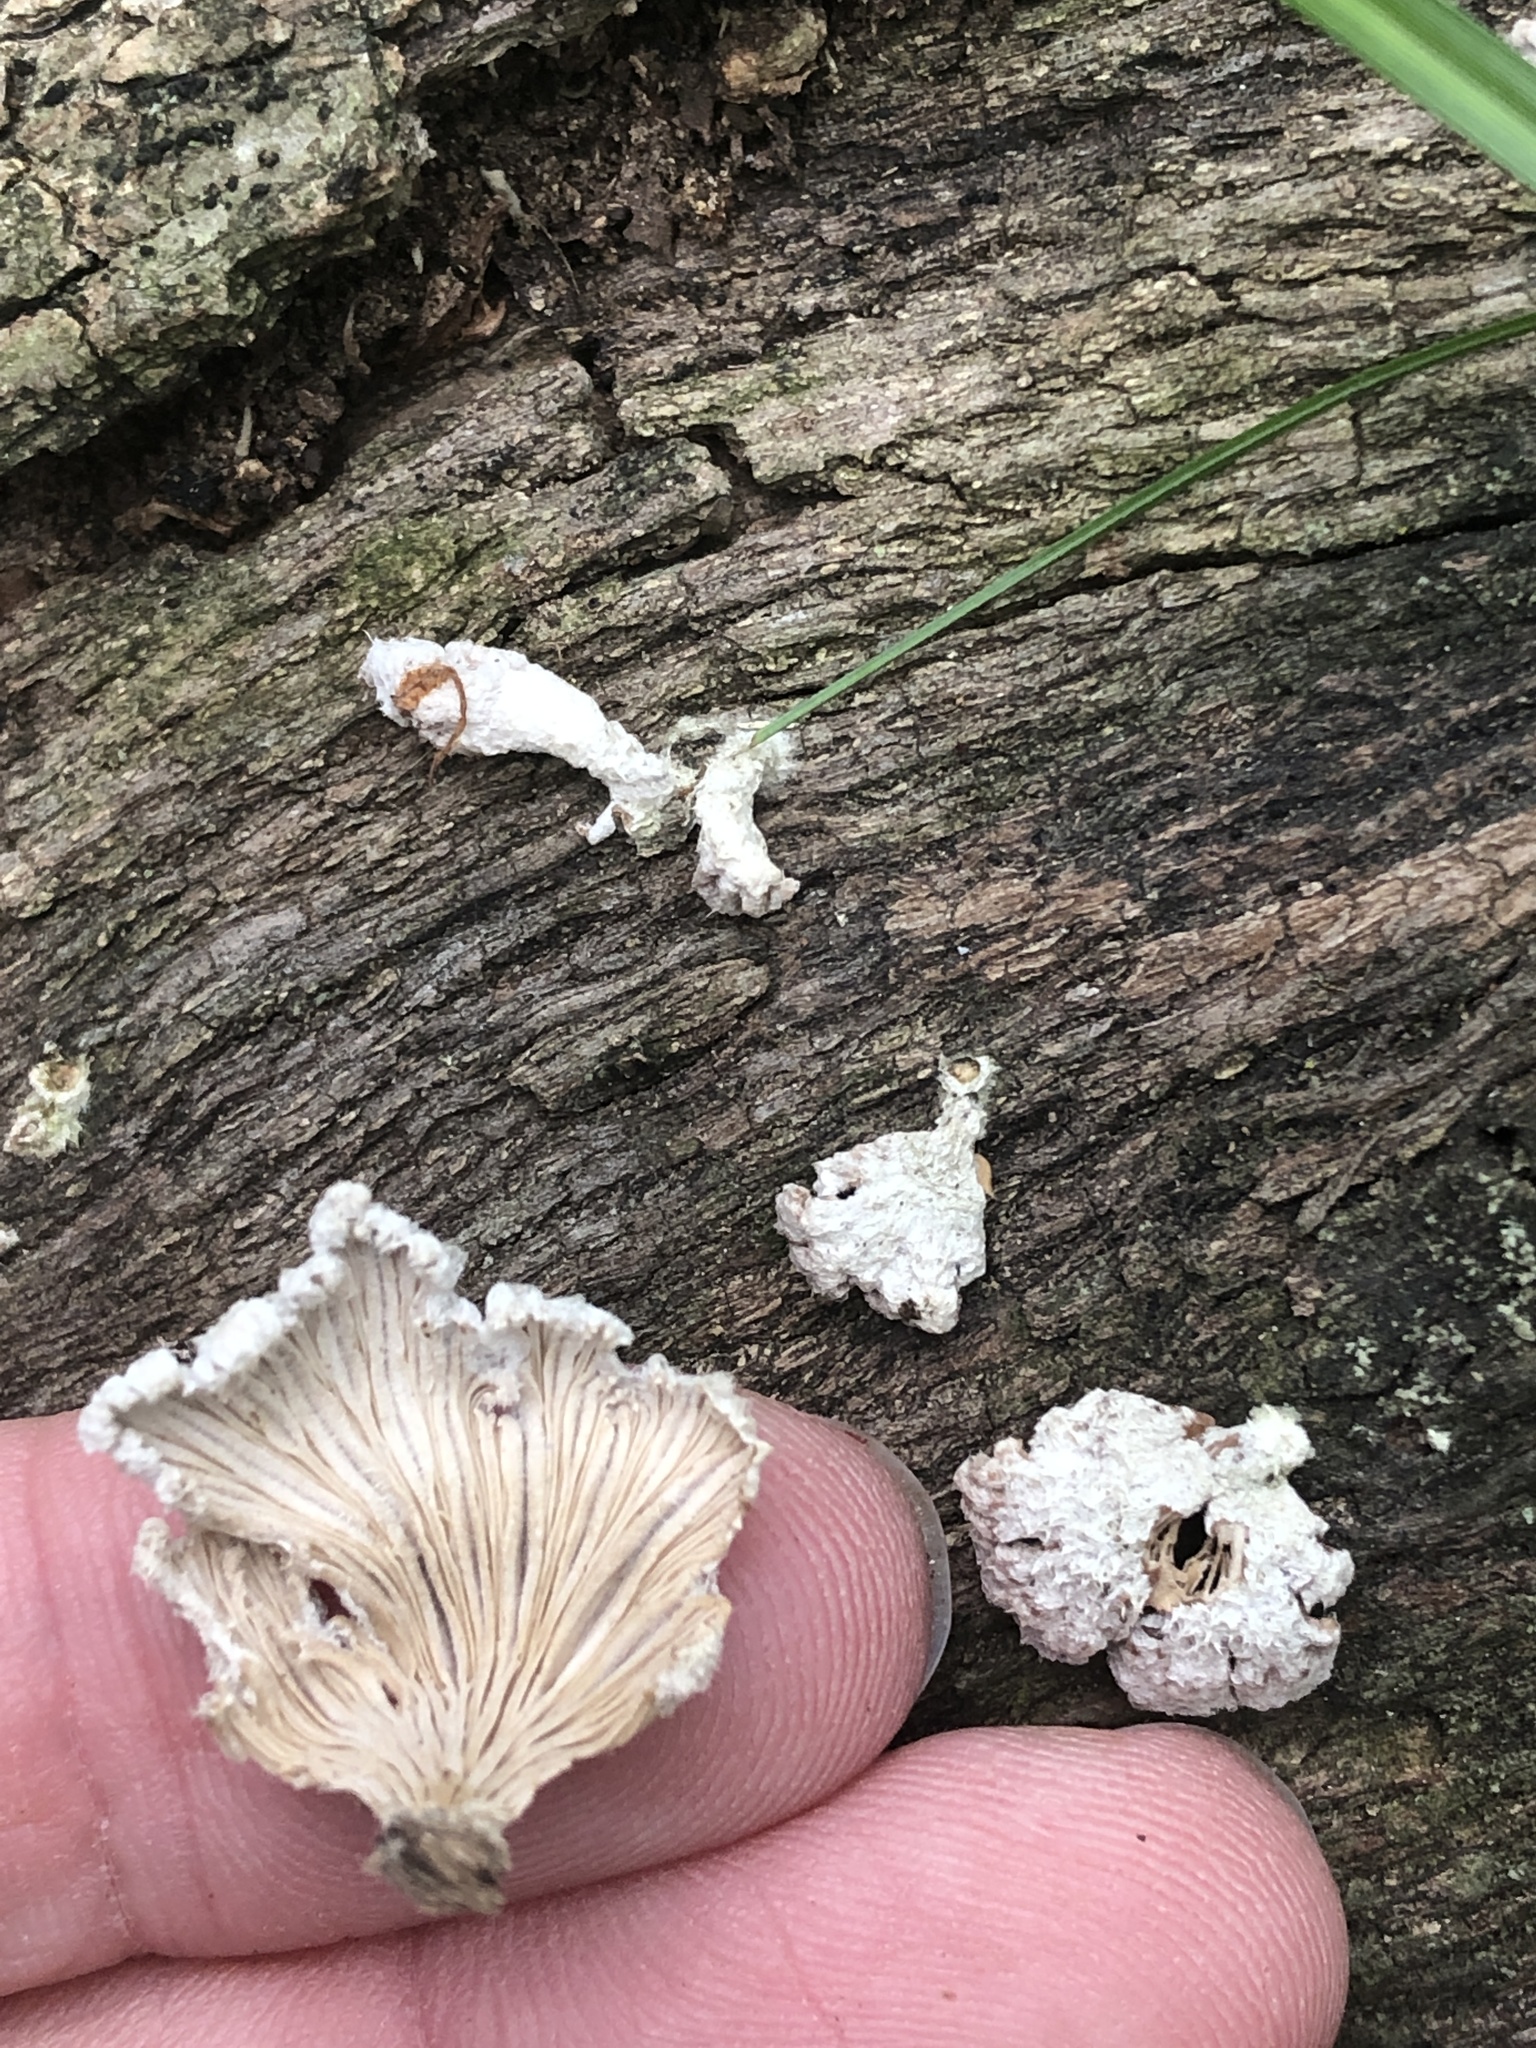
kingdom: Fungi
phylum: Basidiomycota
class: Agaricomycetes
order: Agaricales
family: Schizophyllaceae
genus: Schizophyllum
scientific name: Schizophyllum commune
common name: Common porecrust
